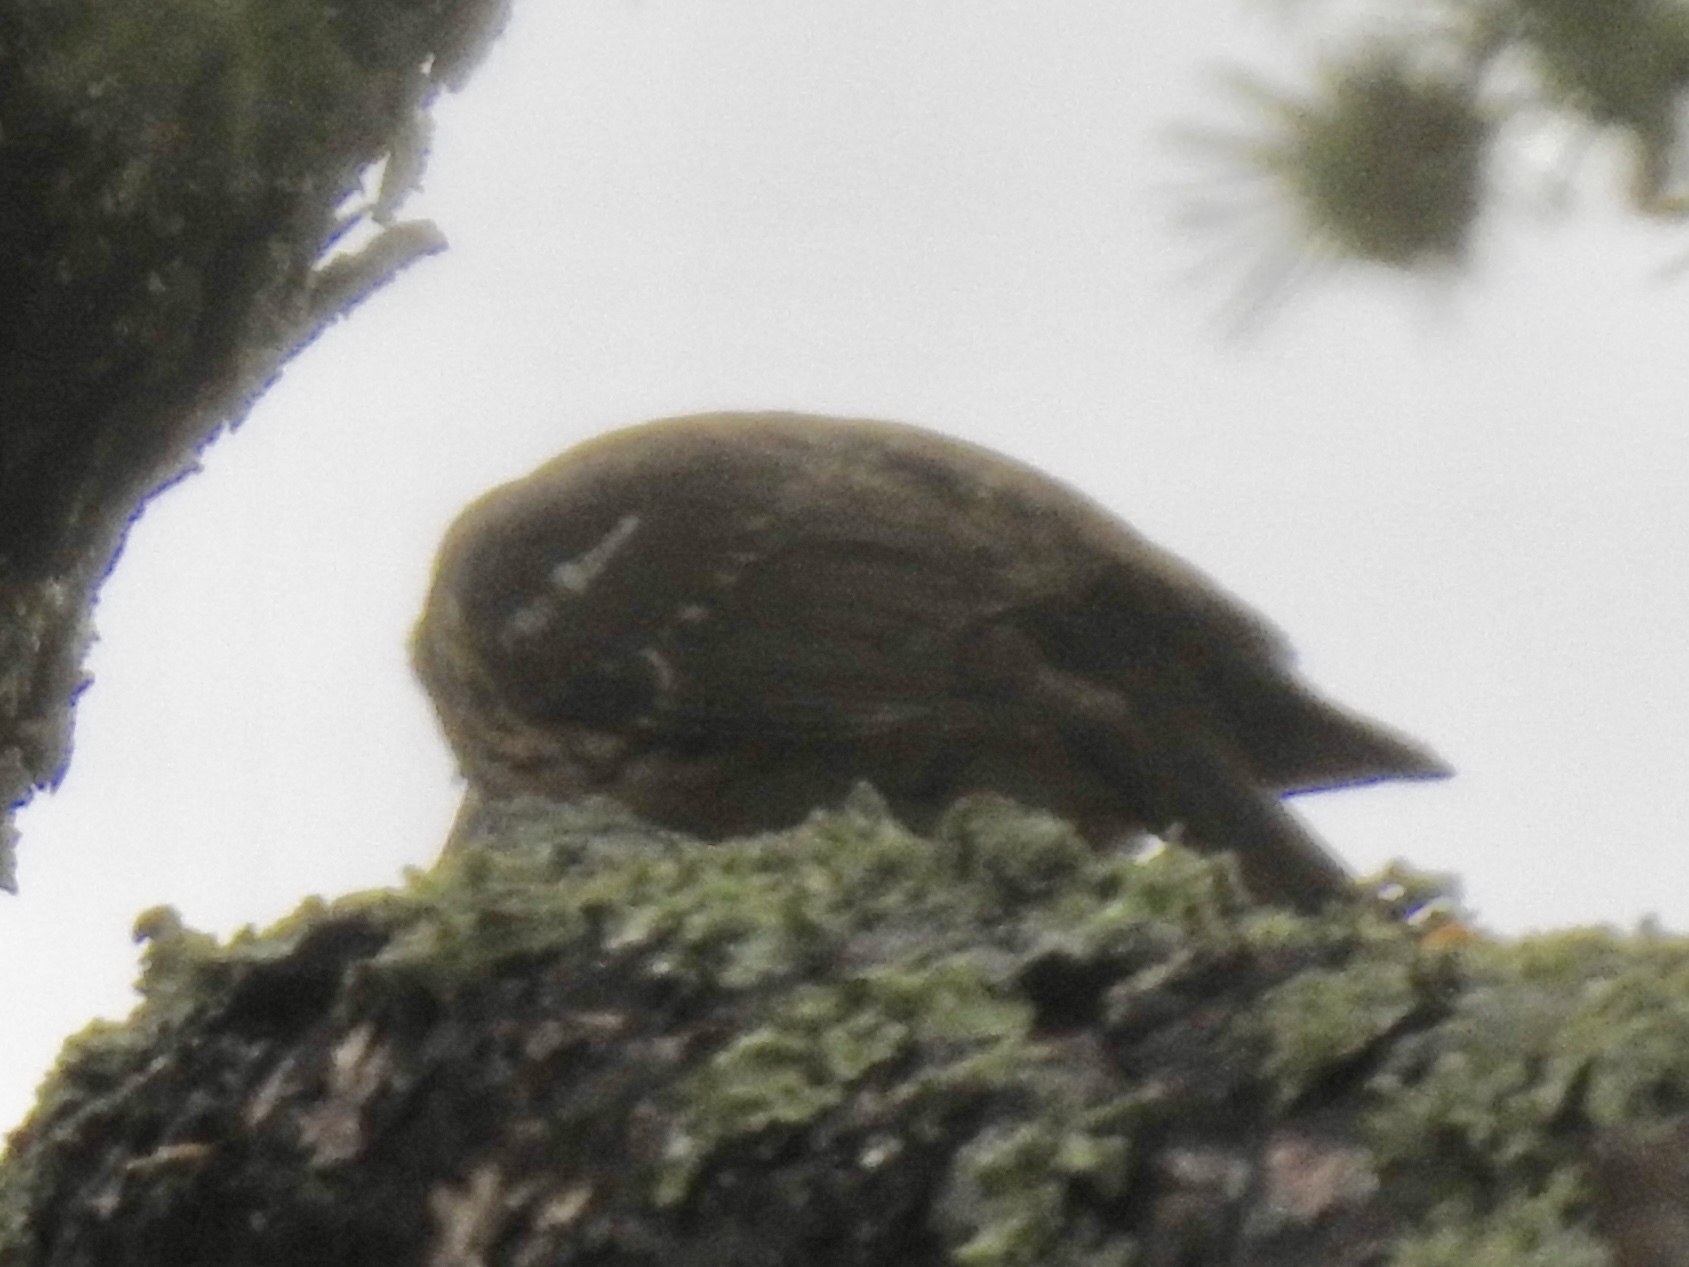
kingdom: Animalia
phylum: Chordata
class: Aves
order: Passeriformes
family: Cardinalidae
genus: Pheucticus
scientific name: Pheucticus melanocephalus
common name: Black-headed grosbeak
